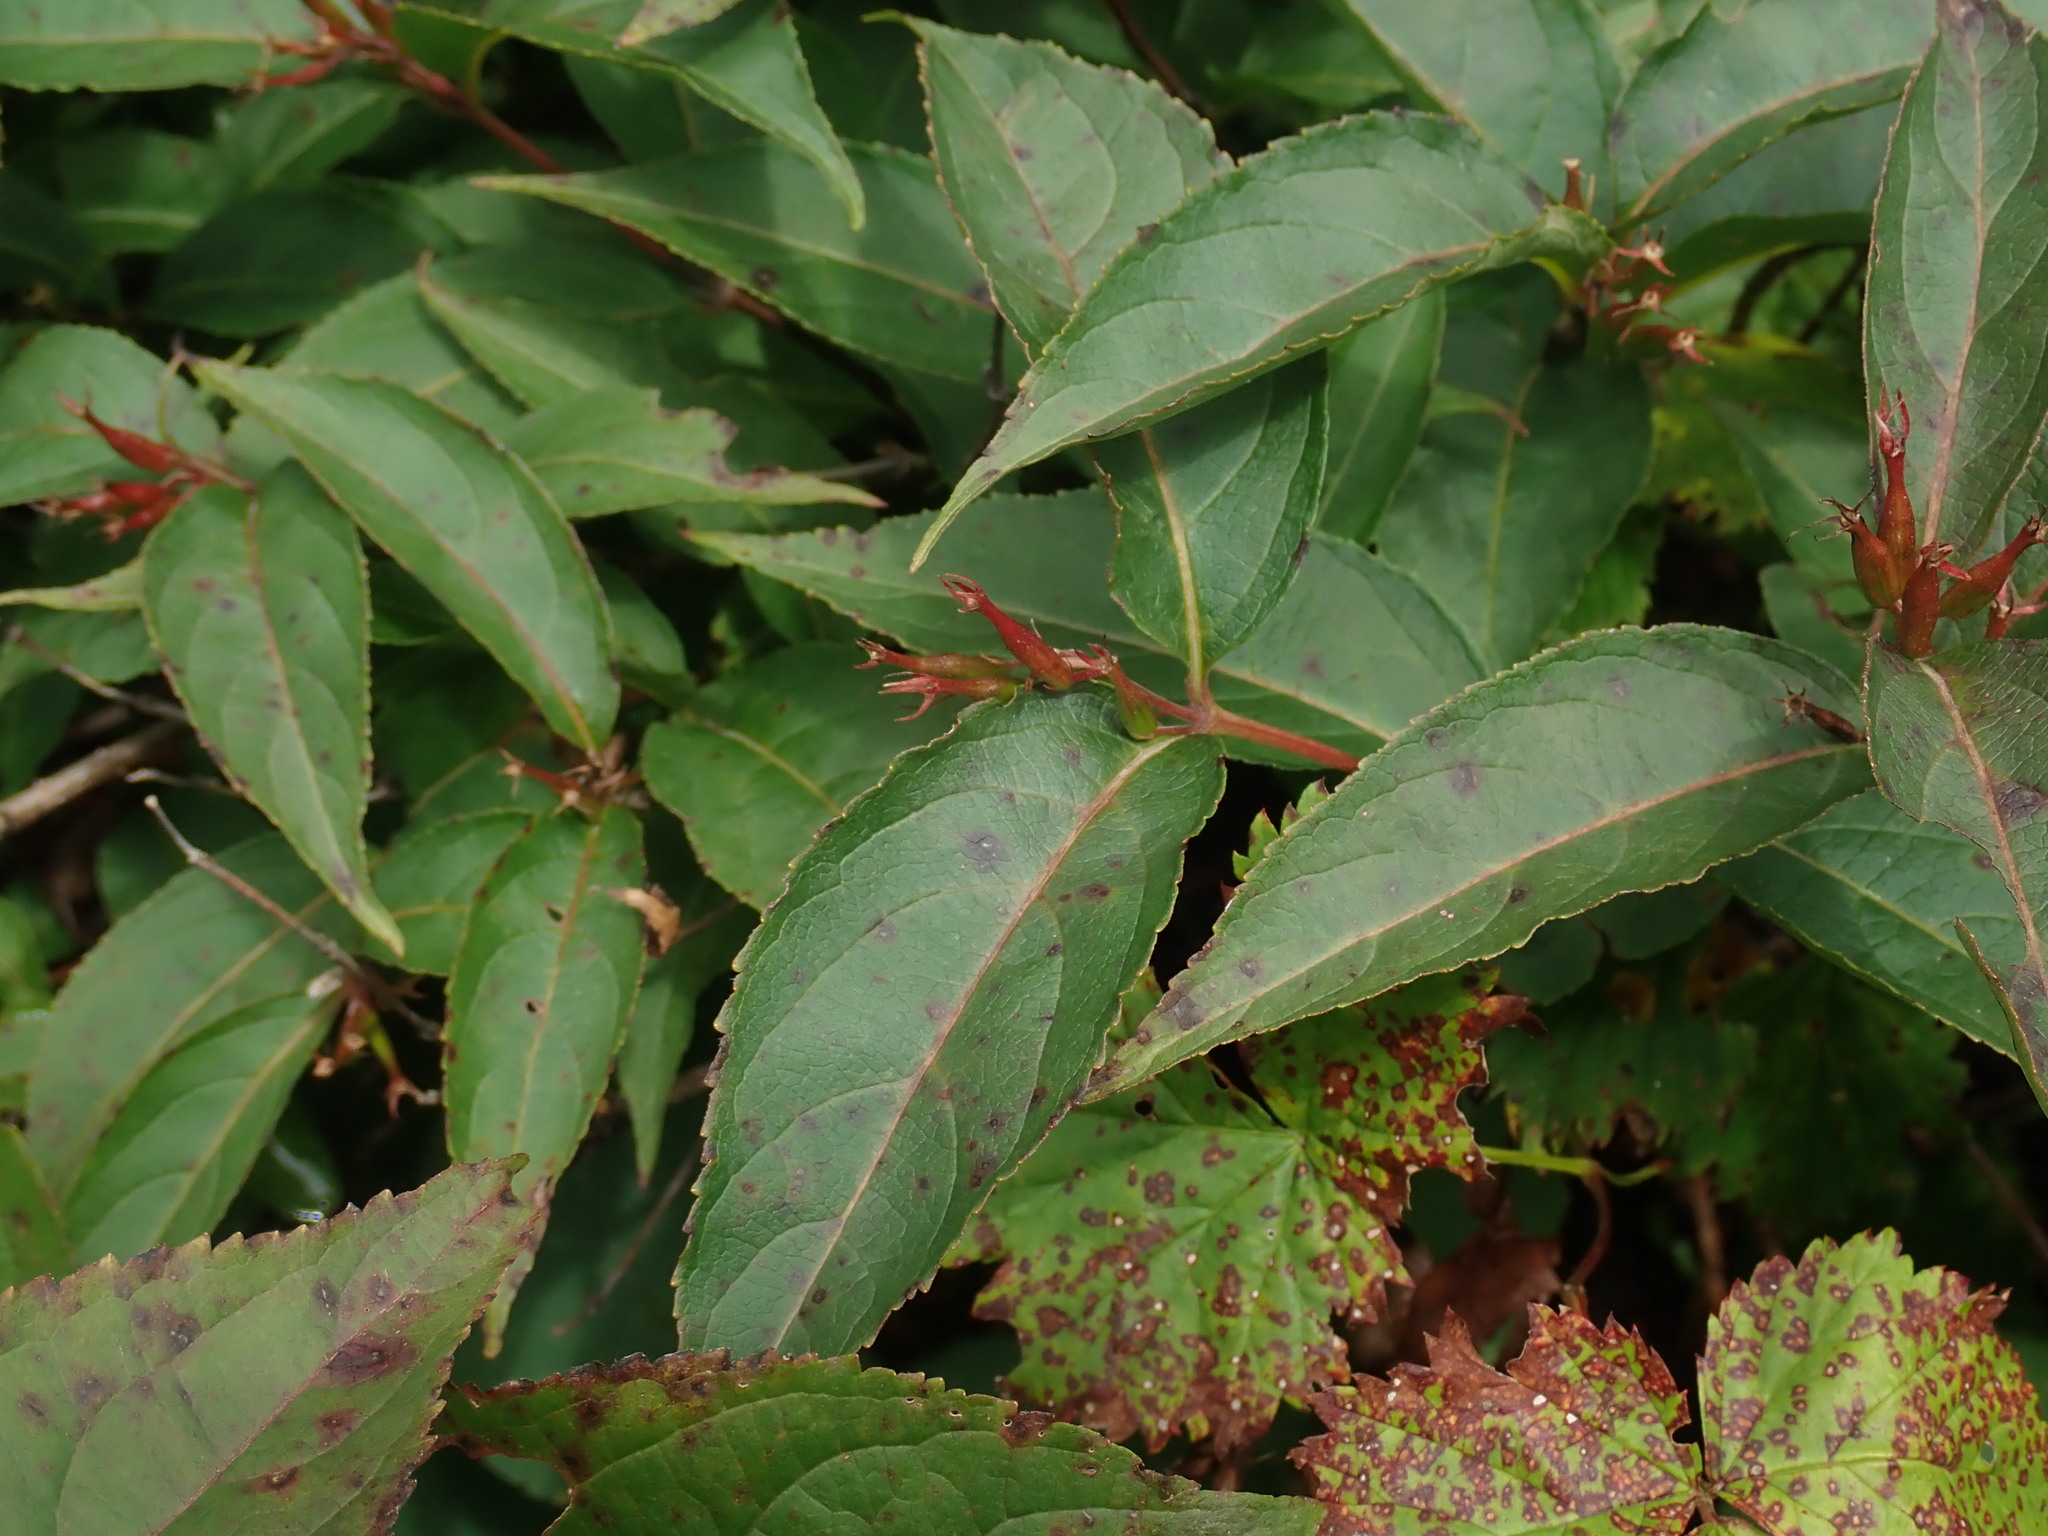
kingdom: Plantae
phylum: Tracheophyta
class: Magnoliopsida
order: Dipsacales
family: Caprifoliaceae
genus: Diervilla
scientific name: Diervilla lonicera
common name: Bush-honeysuckle
